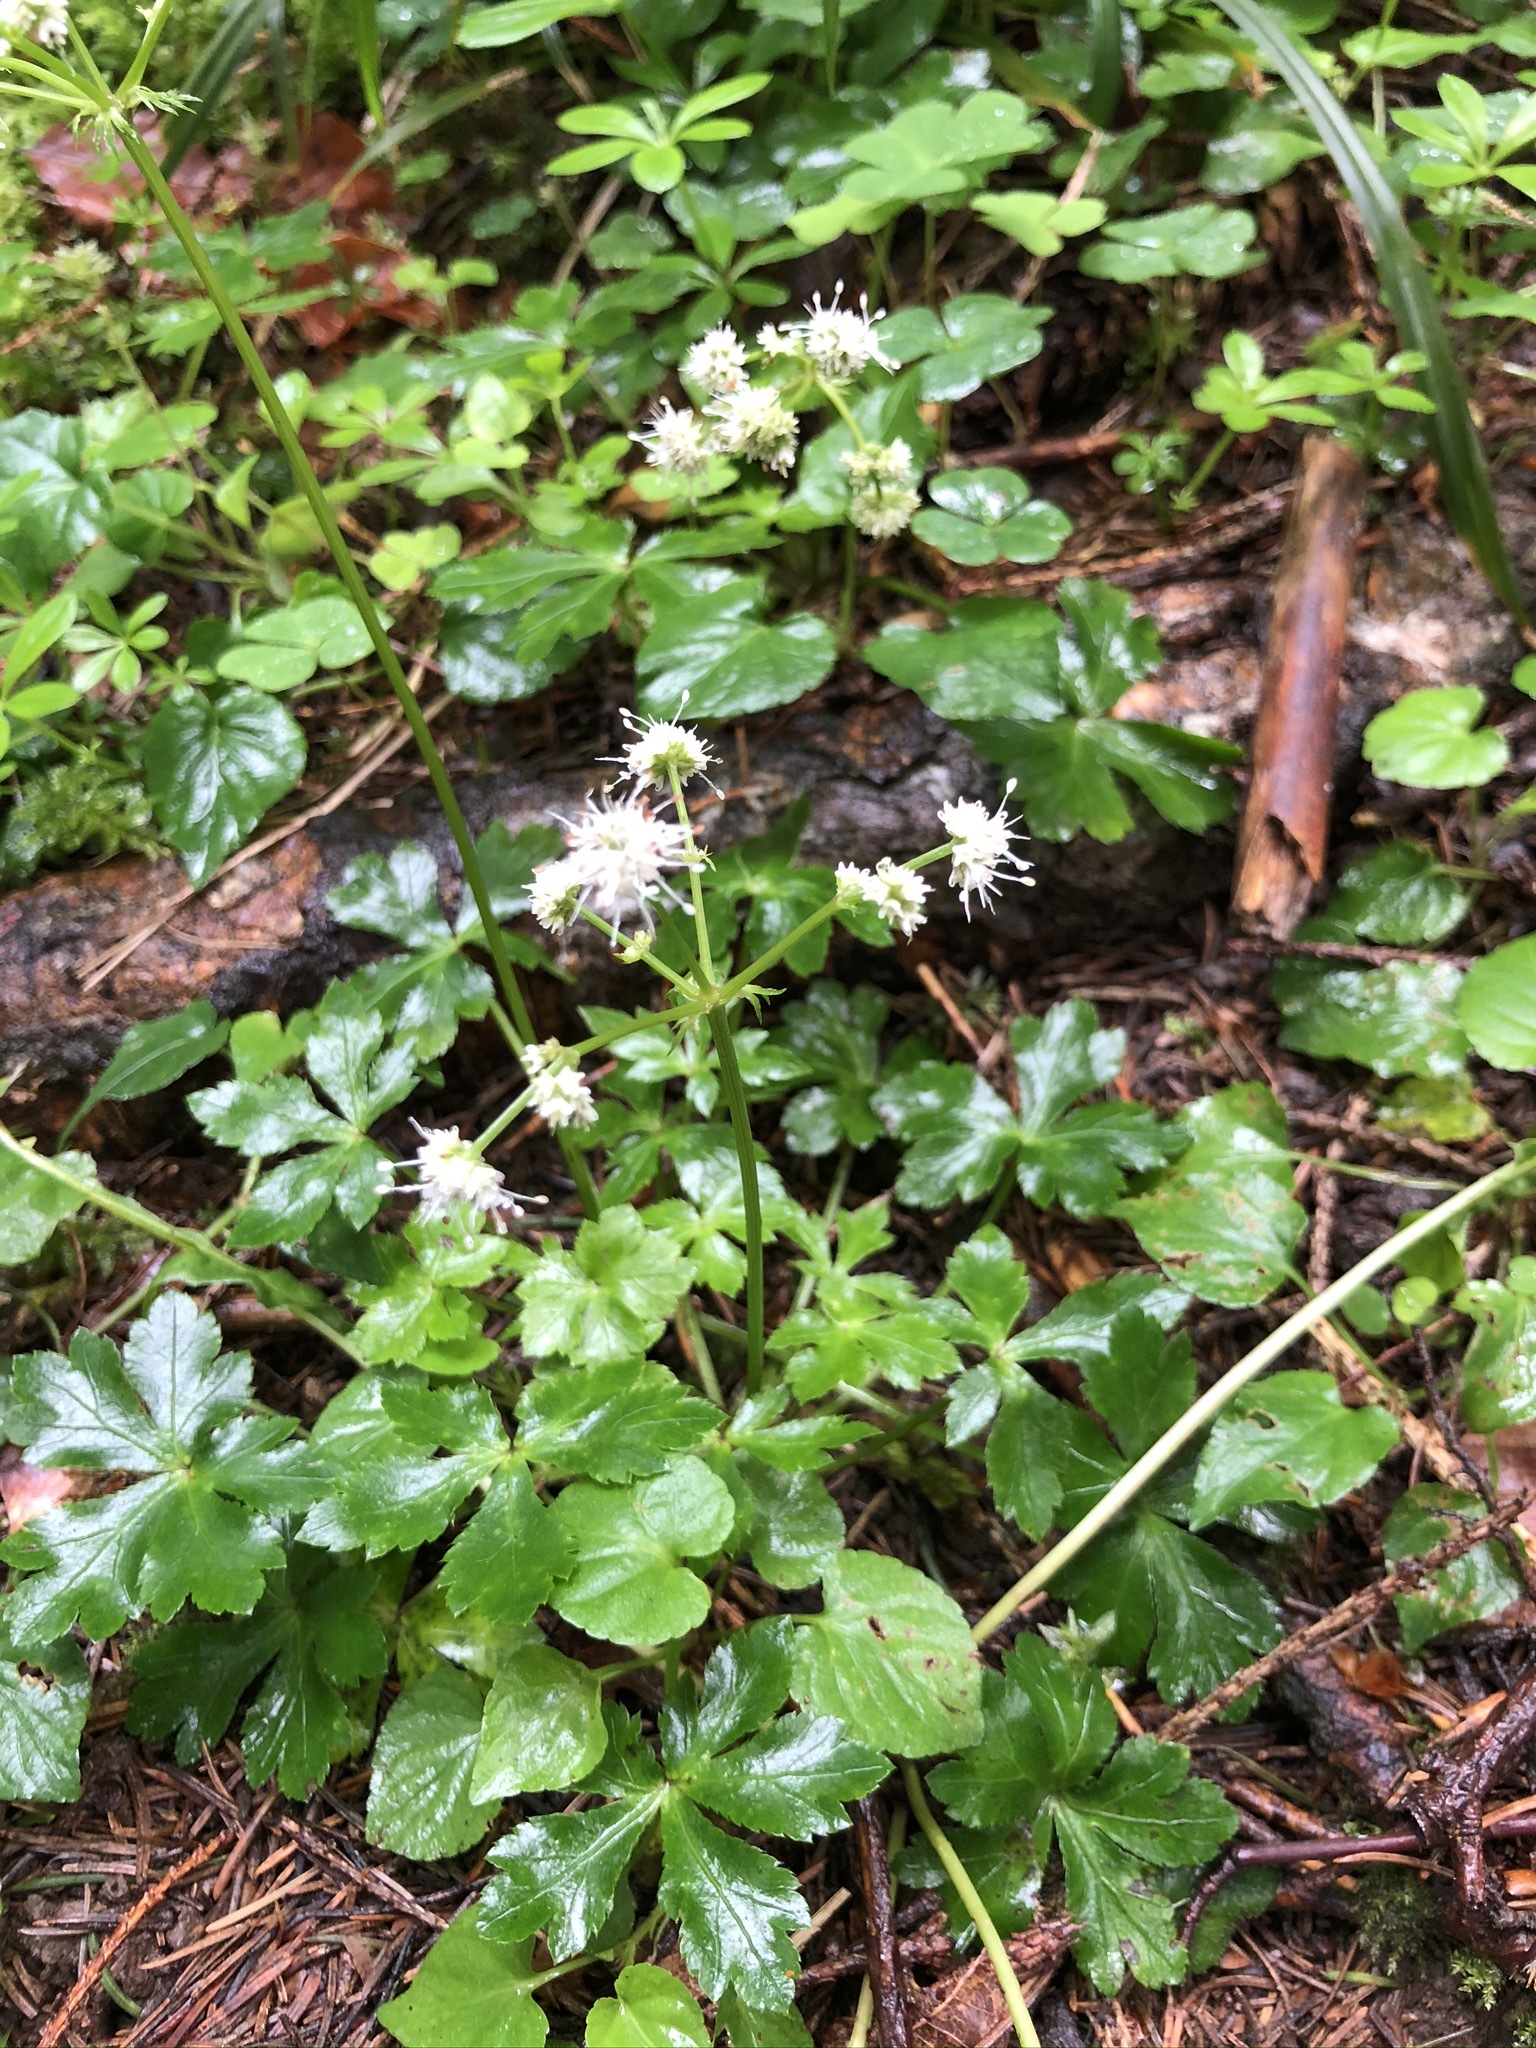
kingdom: Plantae
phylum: Tracheophyta
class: Magnoliopsida
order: Apiales
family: Apiaceae
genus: Sanicula
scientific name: Sanicula europaea
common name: Sanicle
